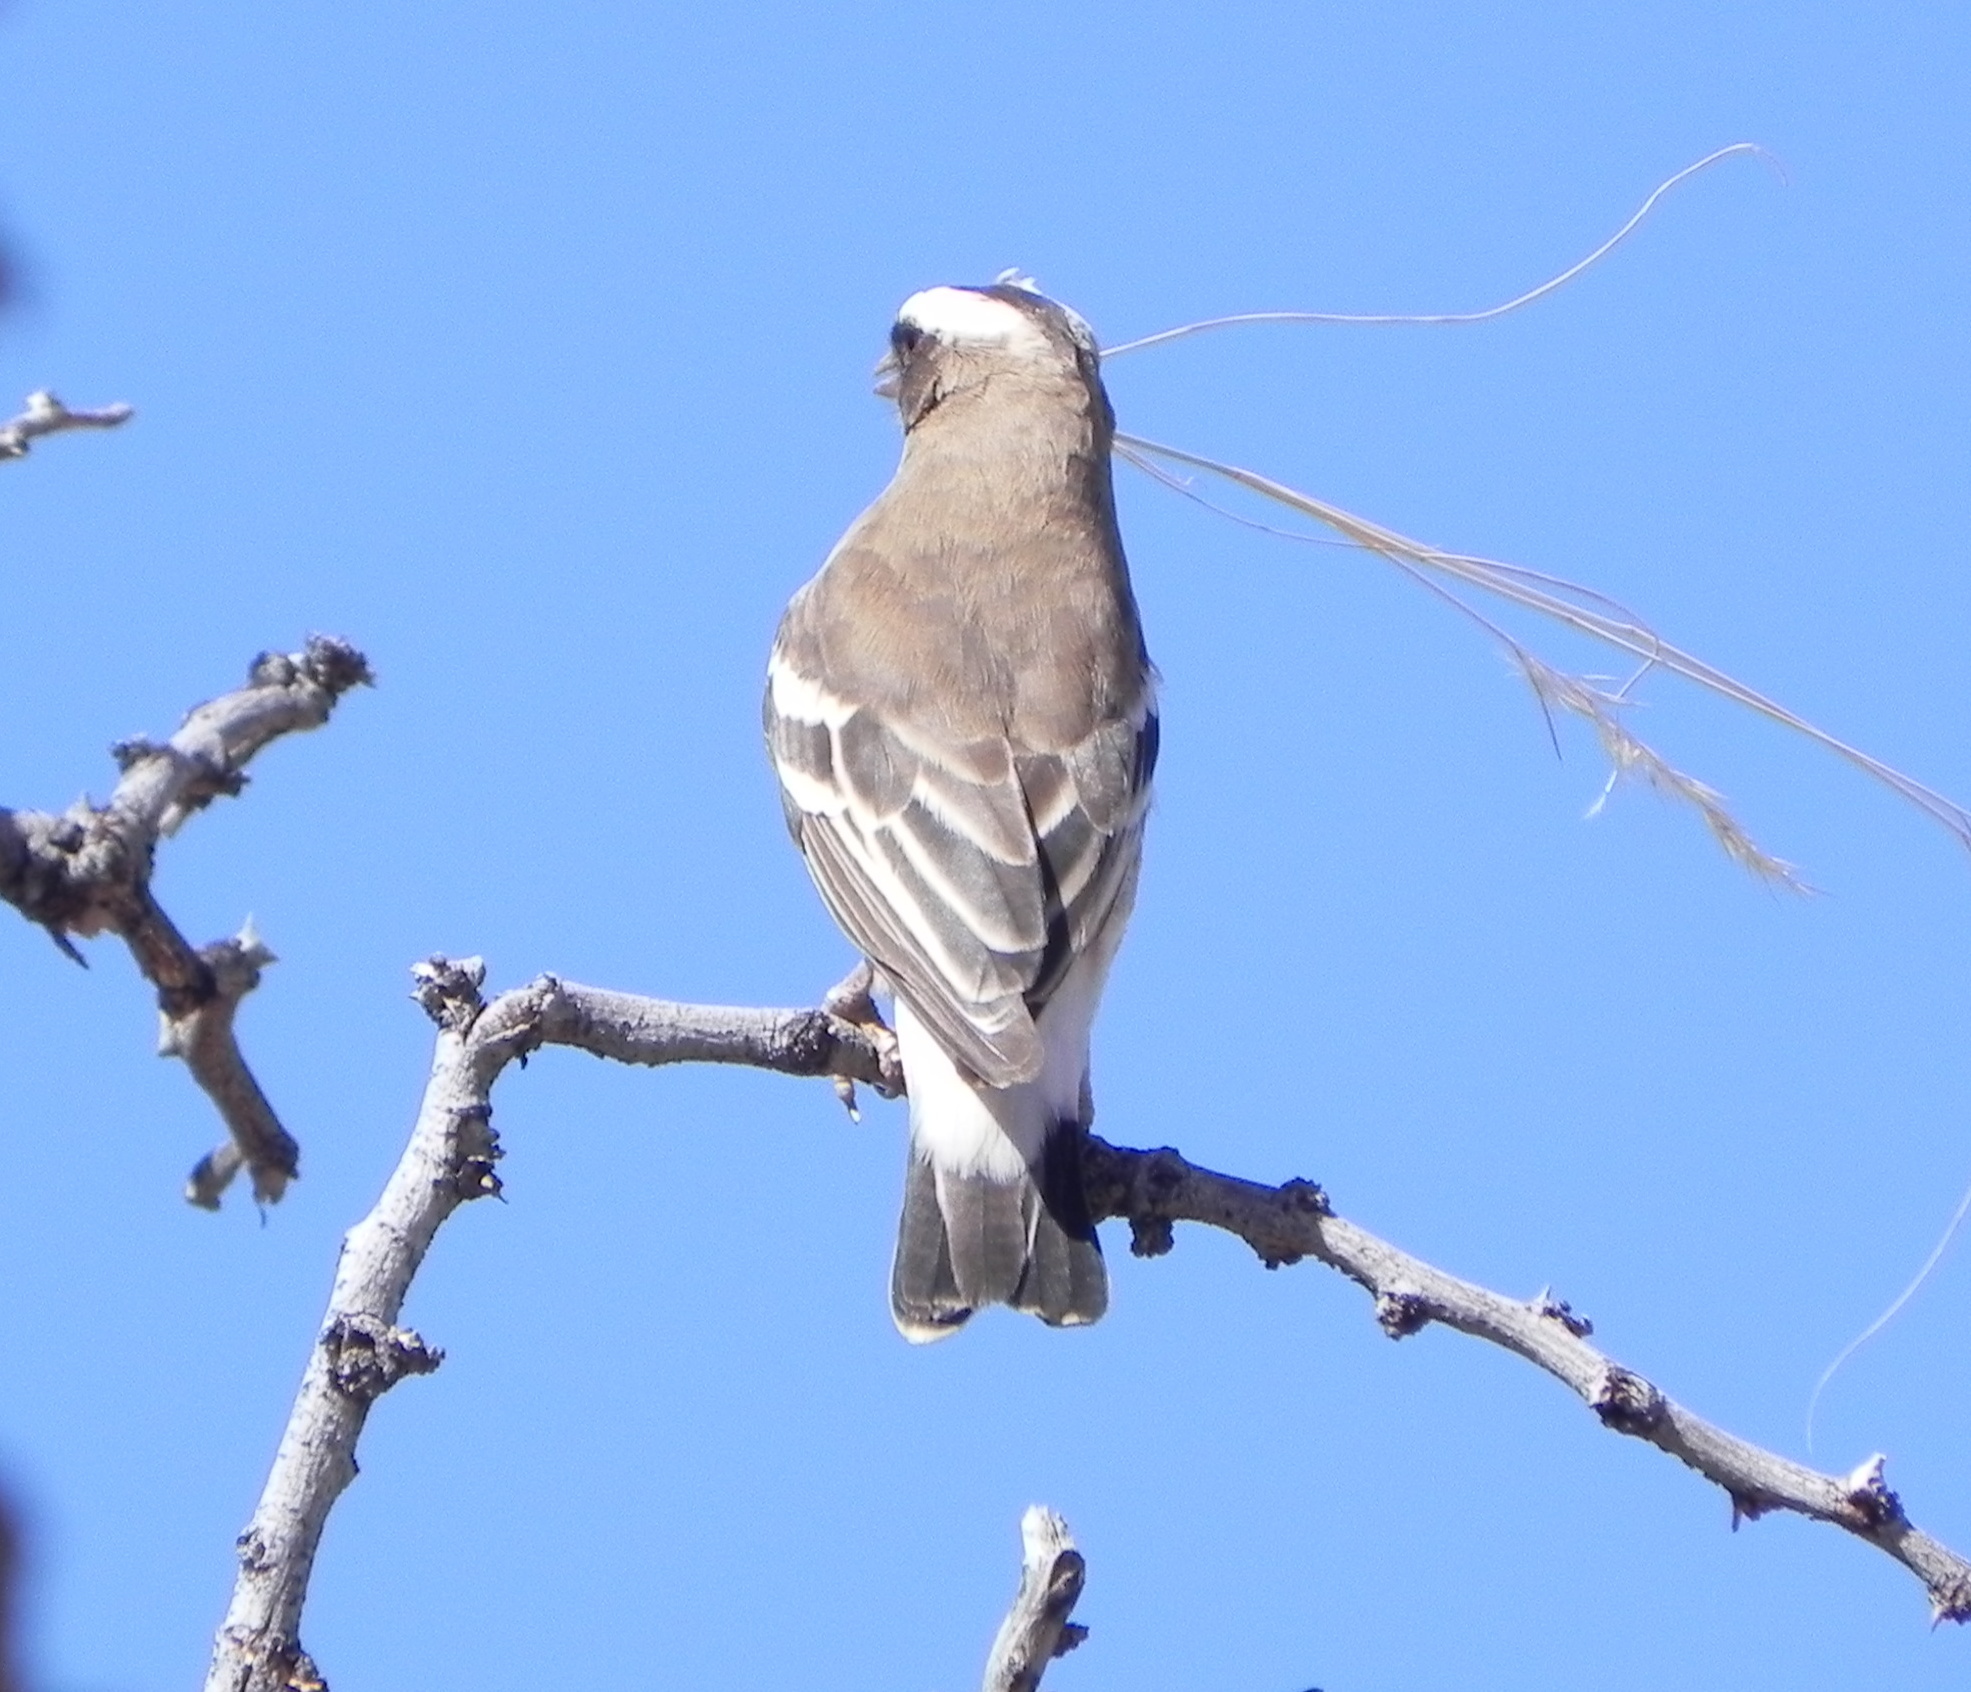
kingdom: Animalia
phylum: Chordata
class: Aves
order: Passeriformes
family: Passeridae
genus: Plocepasser
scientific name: Plocepasser mahali
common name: White-browed sparrow-weaver
